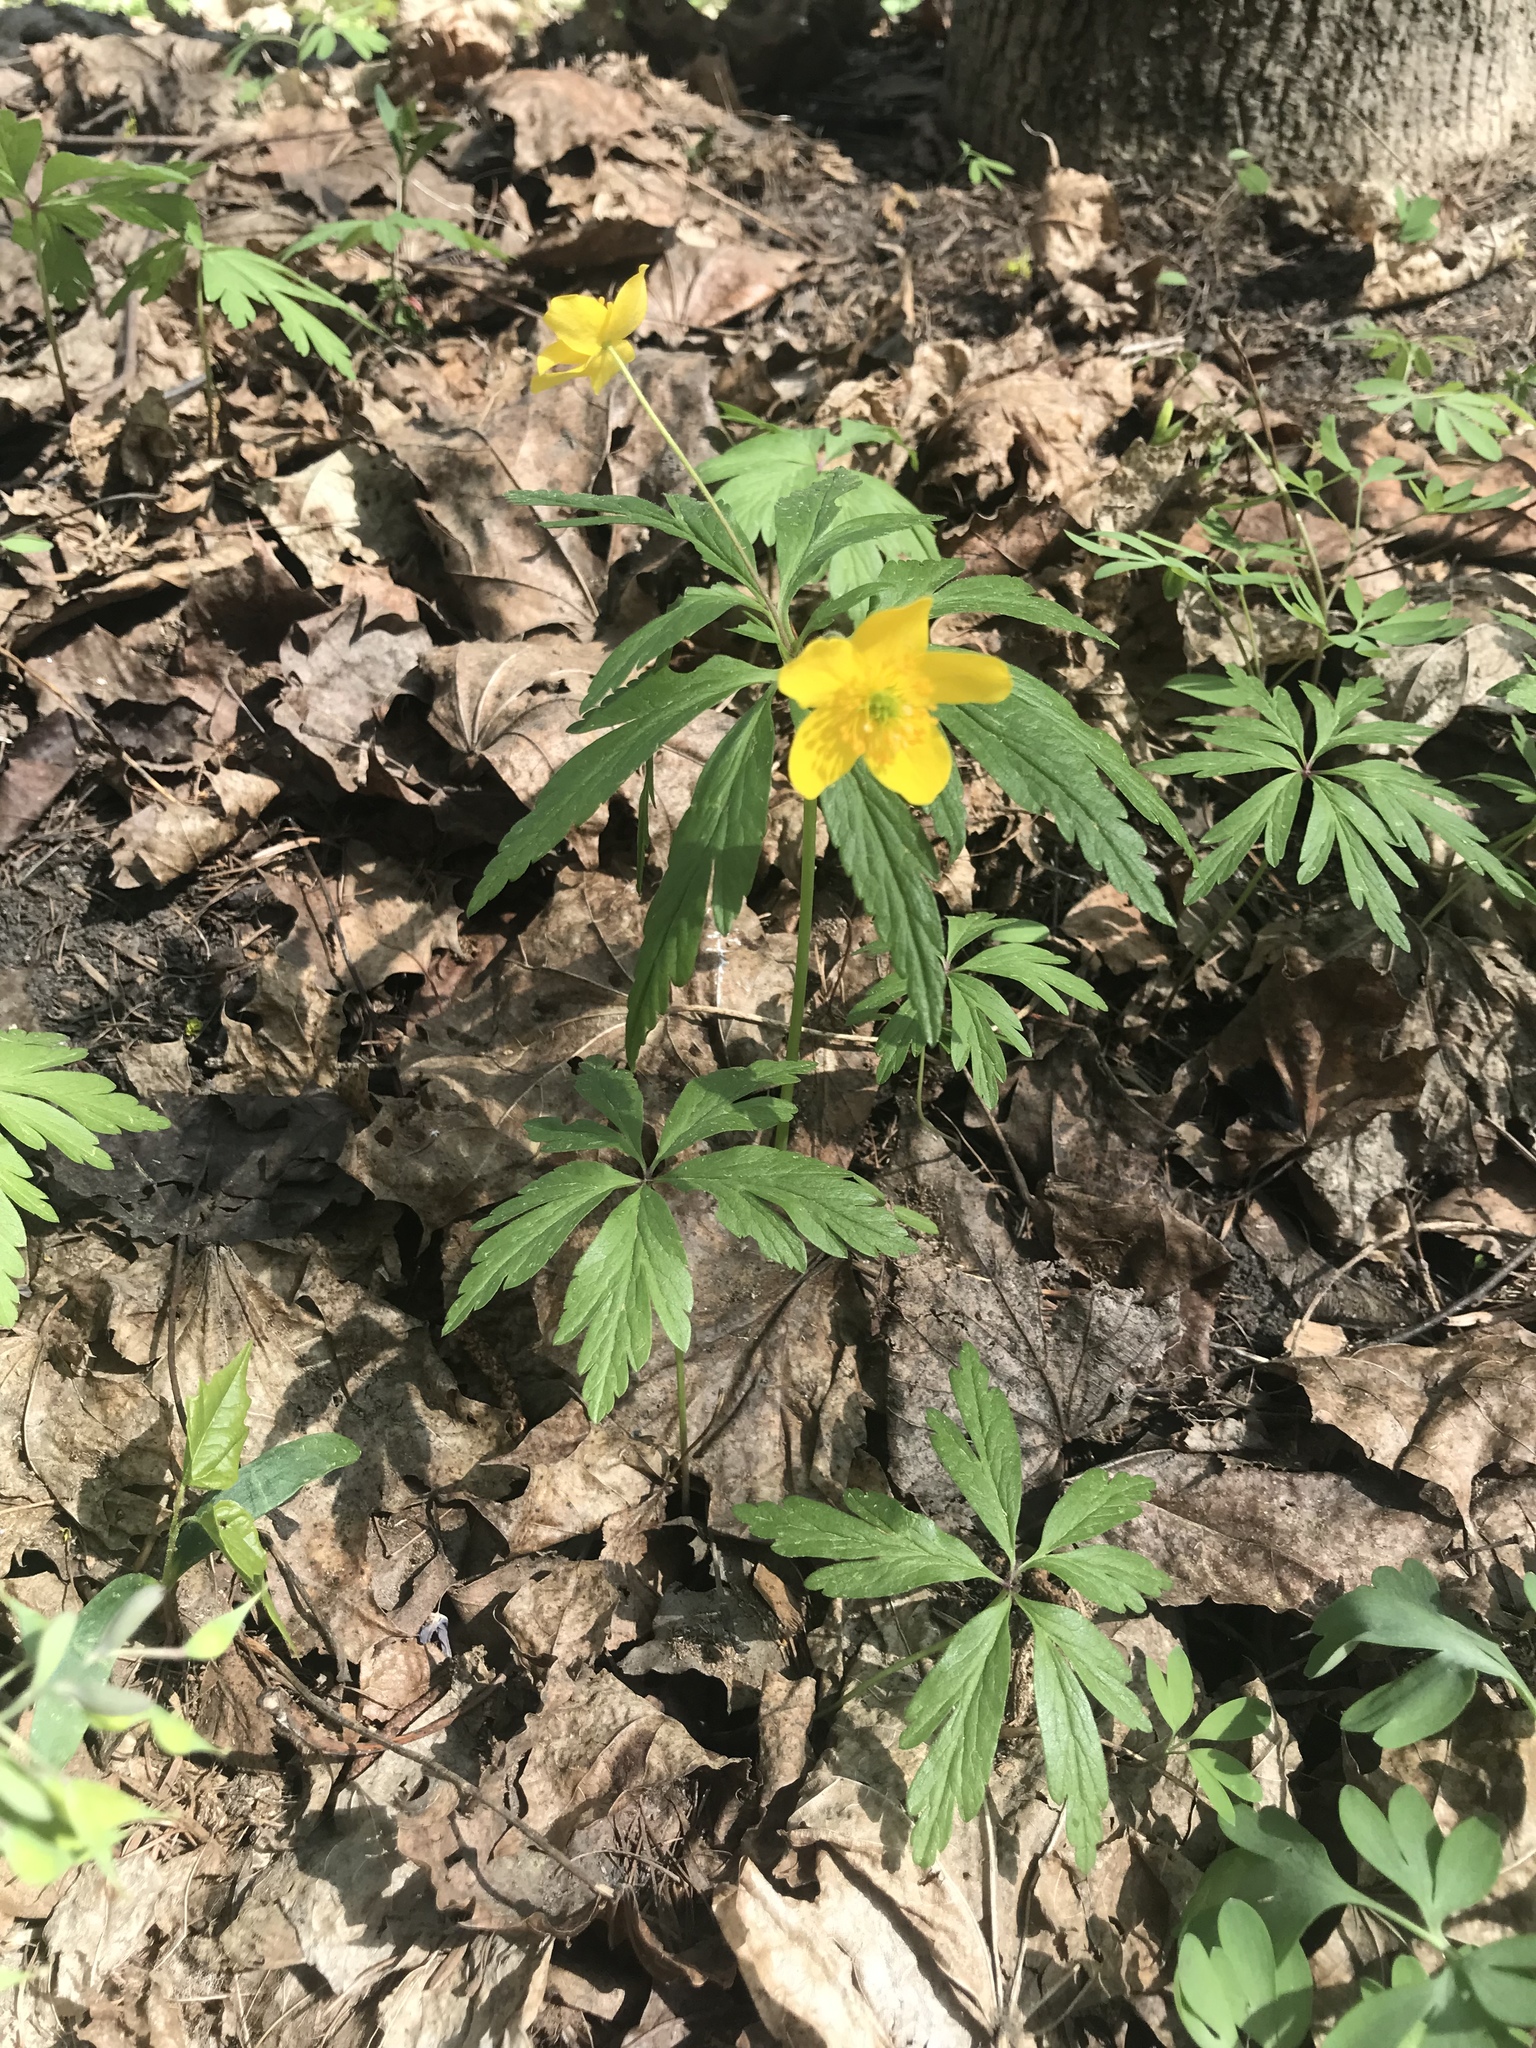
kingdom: Plantae
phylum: Tracheophyta
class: Magnoliopsida
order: Ranunculales
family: Ranunculaceae
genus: Anemone
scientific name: Anemone ranunculoides
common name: Yellow anemone
